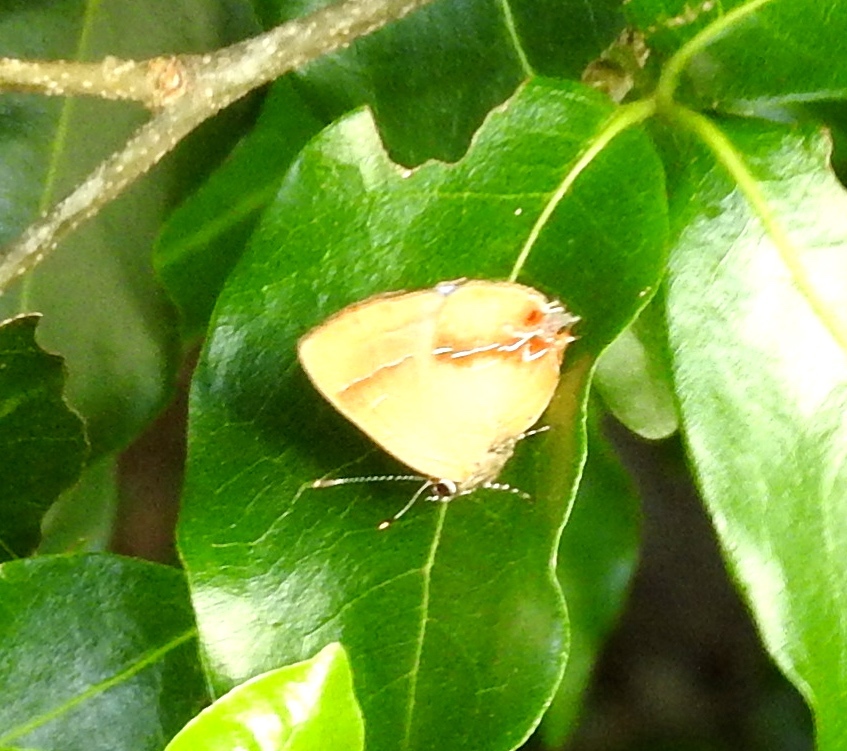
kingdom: Animalia
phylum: Arthropoda
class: Insecta
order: Lepidoptera
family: Lycaenidae
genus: Thecla
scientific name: Thecla demonassa
